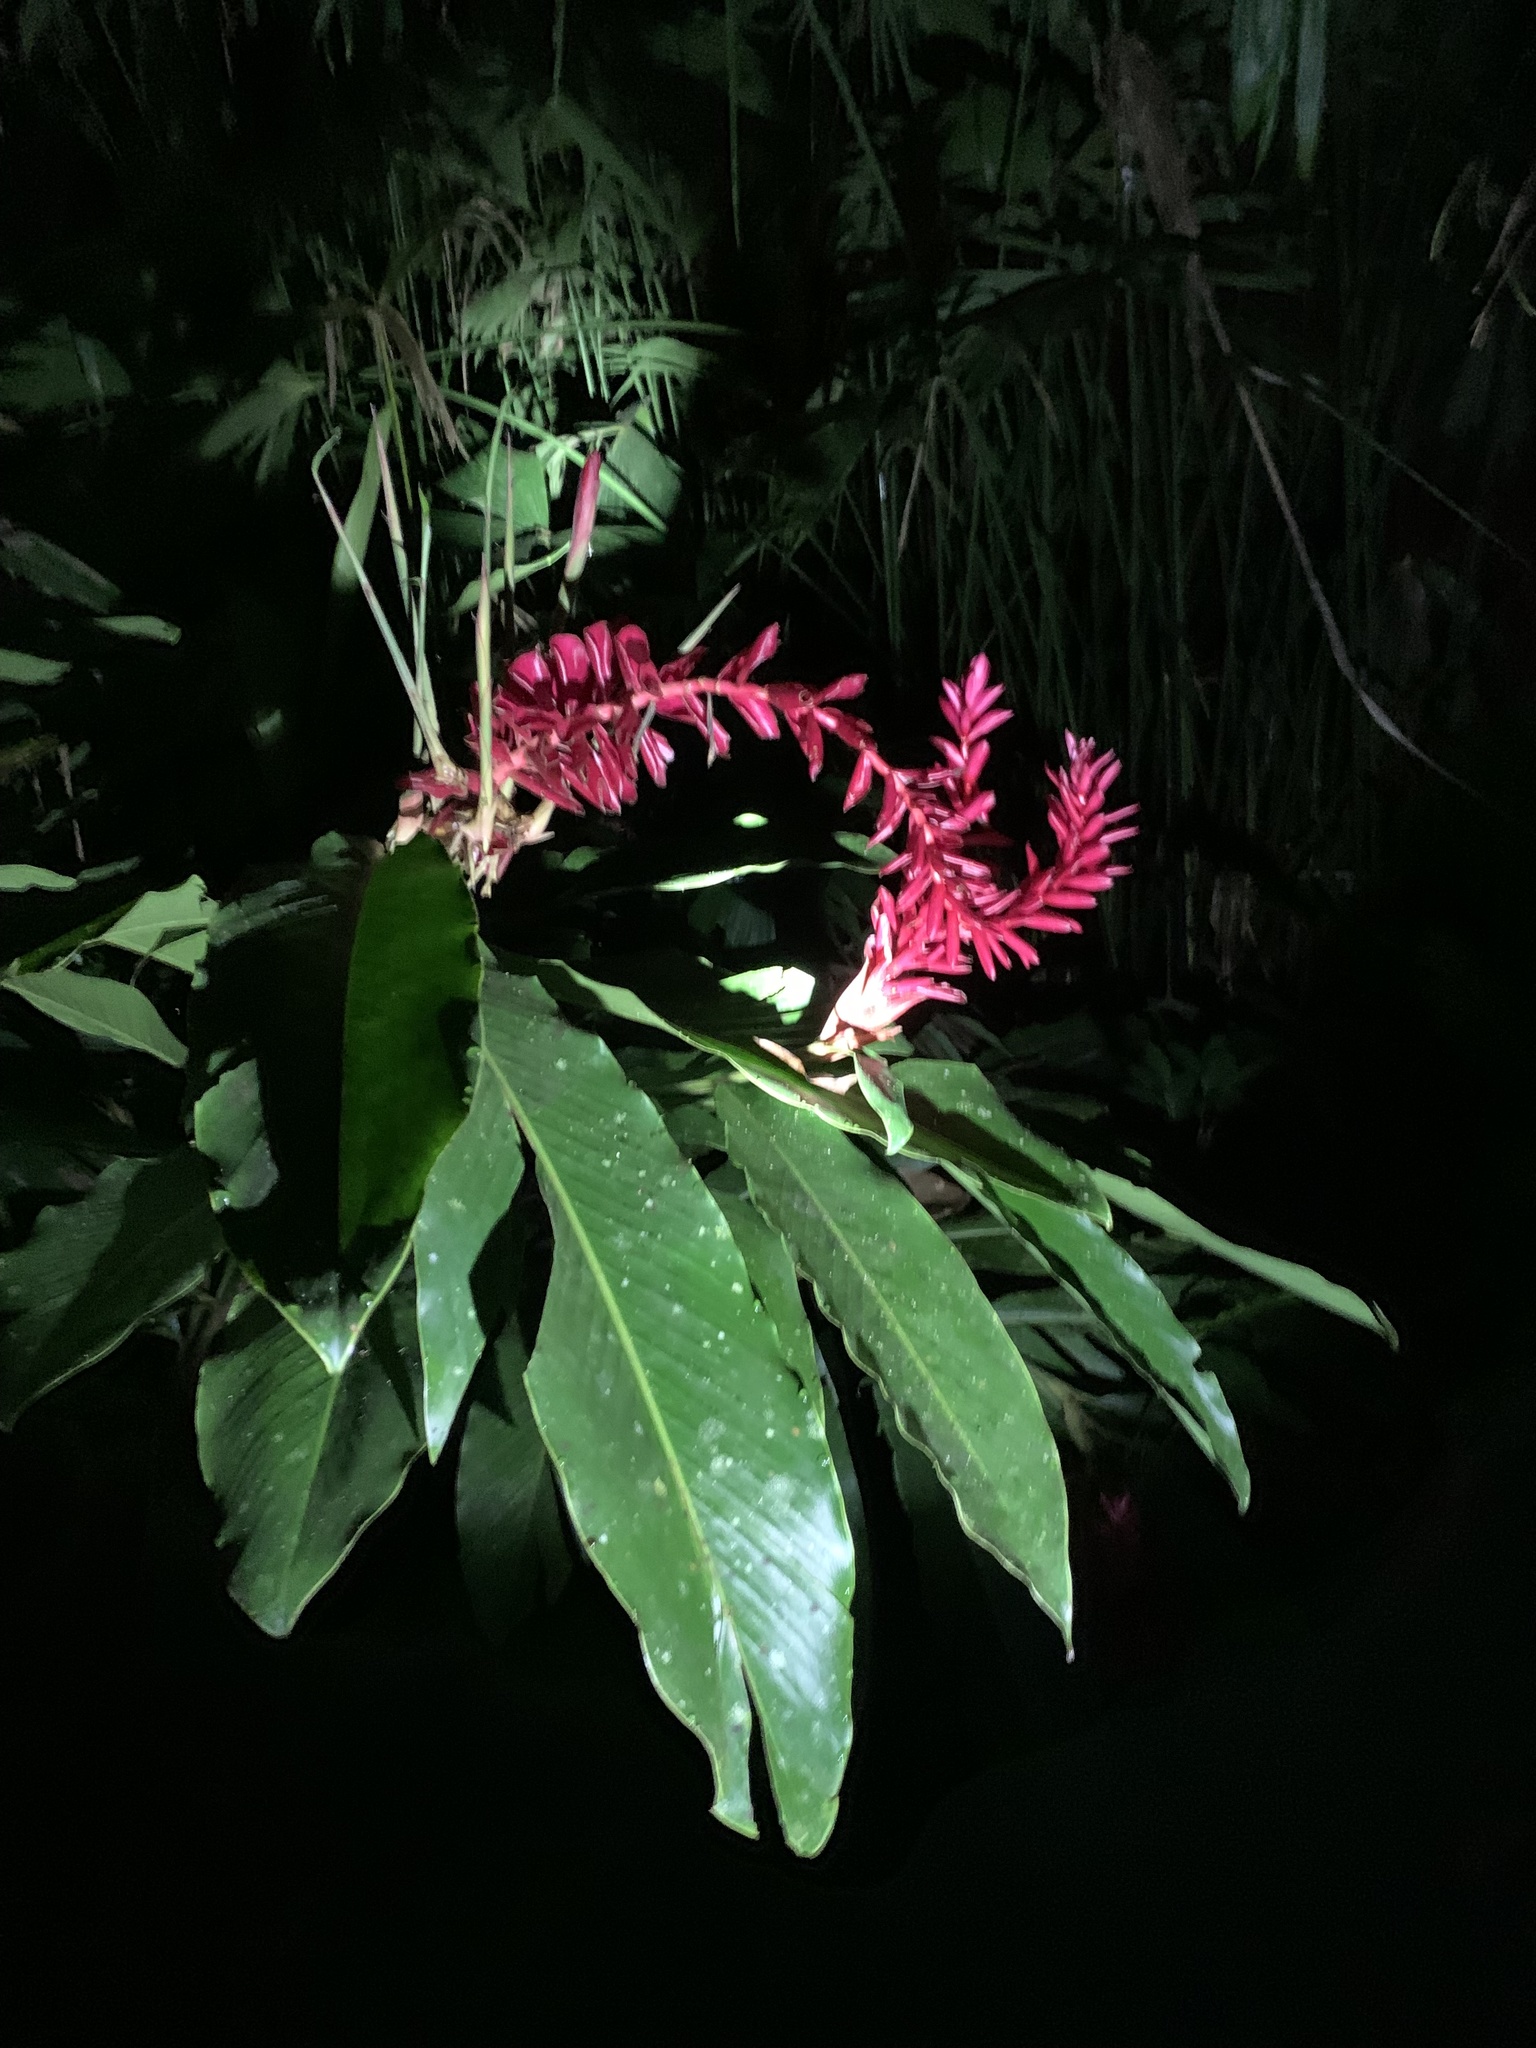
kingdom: Plantae
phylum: Tracheophyta
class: Liliopsida
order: Zingiberales
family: Zingiberaceae
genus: Alpinia
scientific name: Alpinia purpurata
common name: Red ginger
